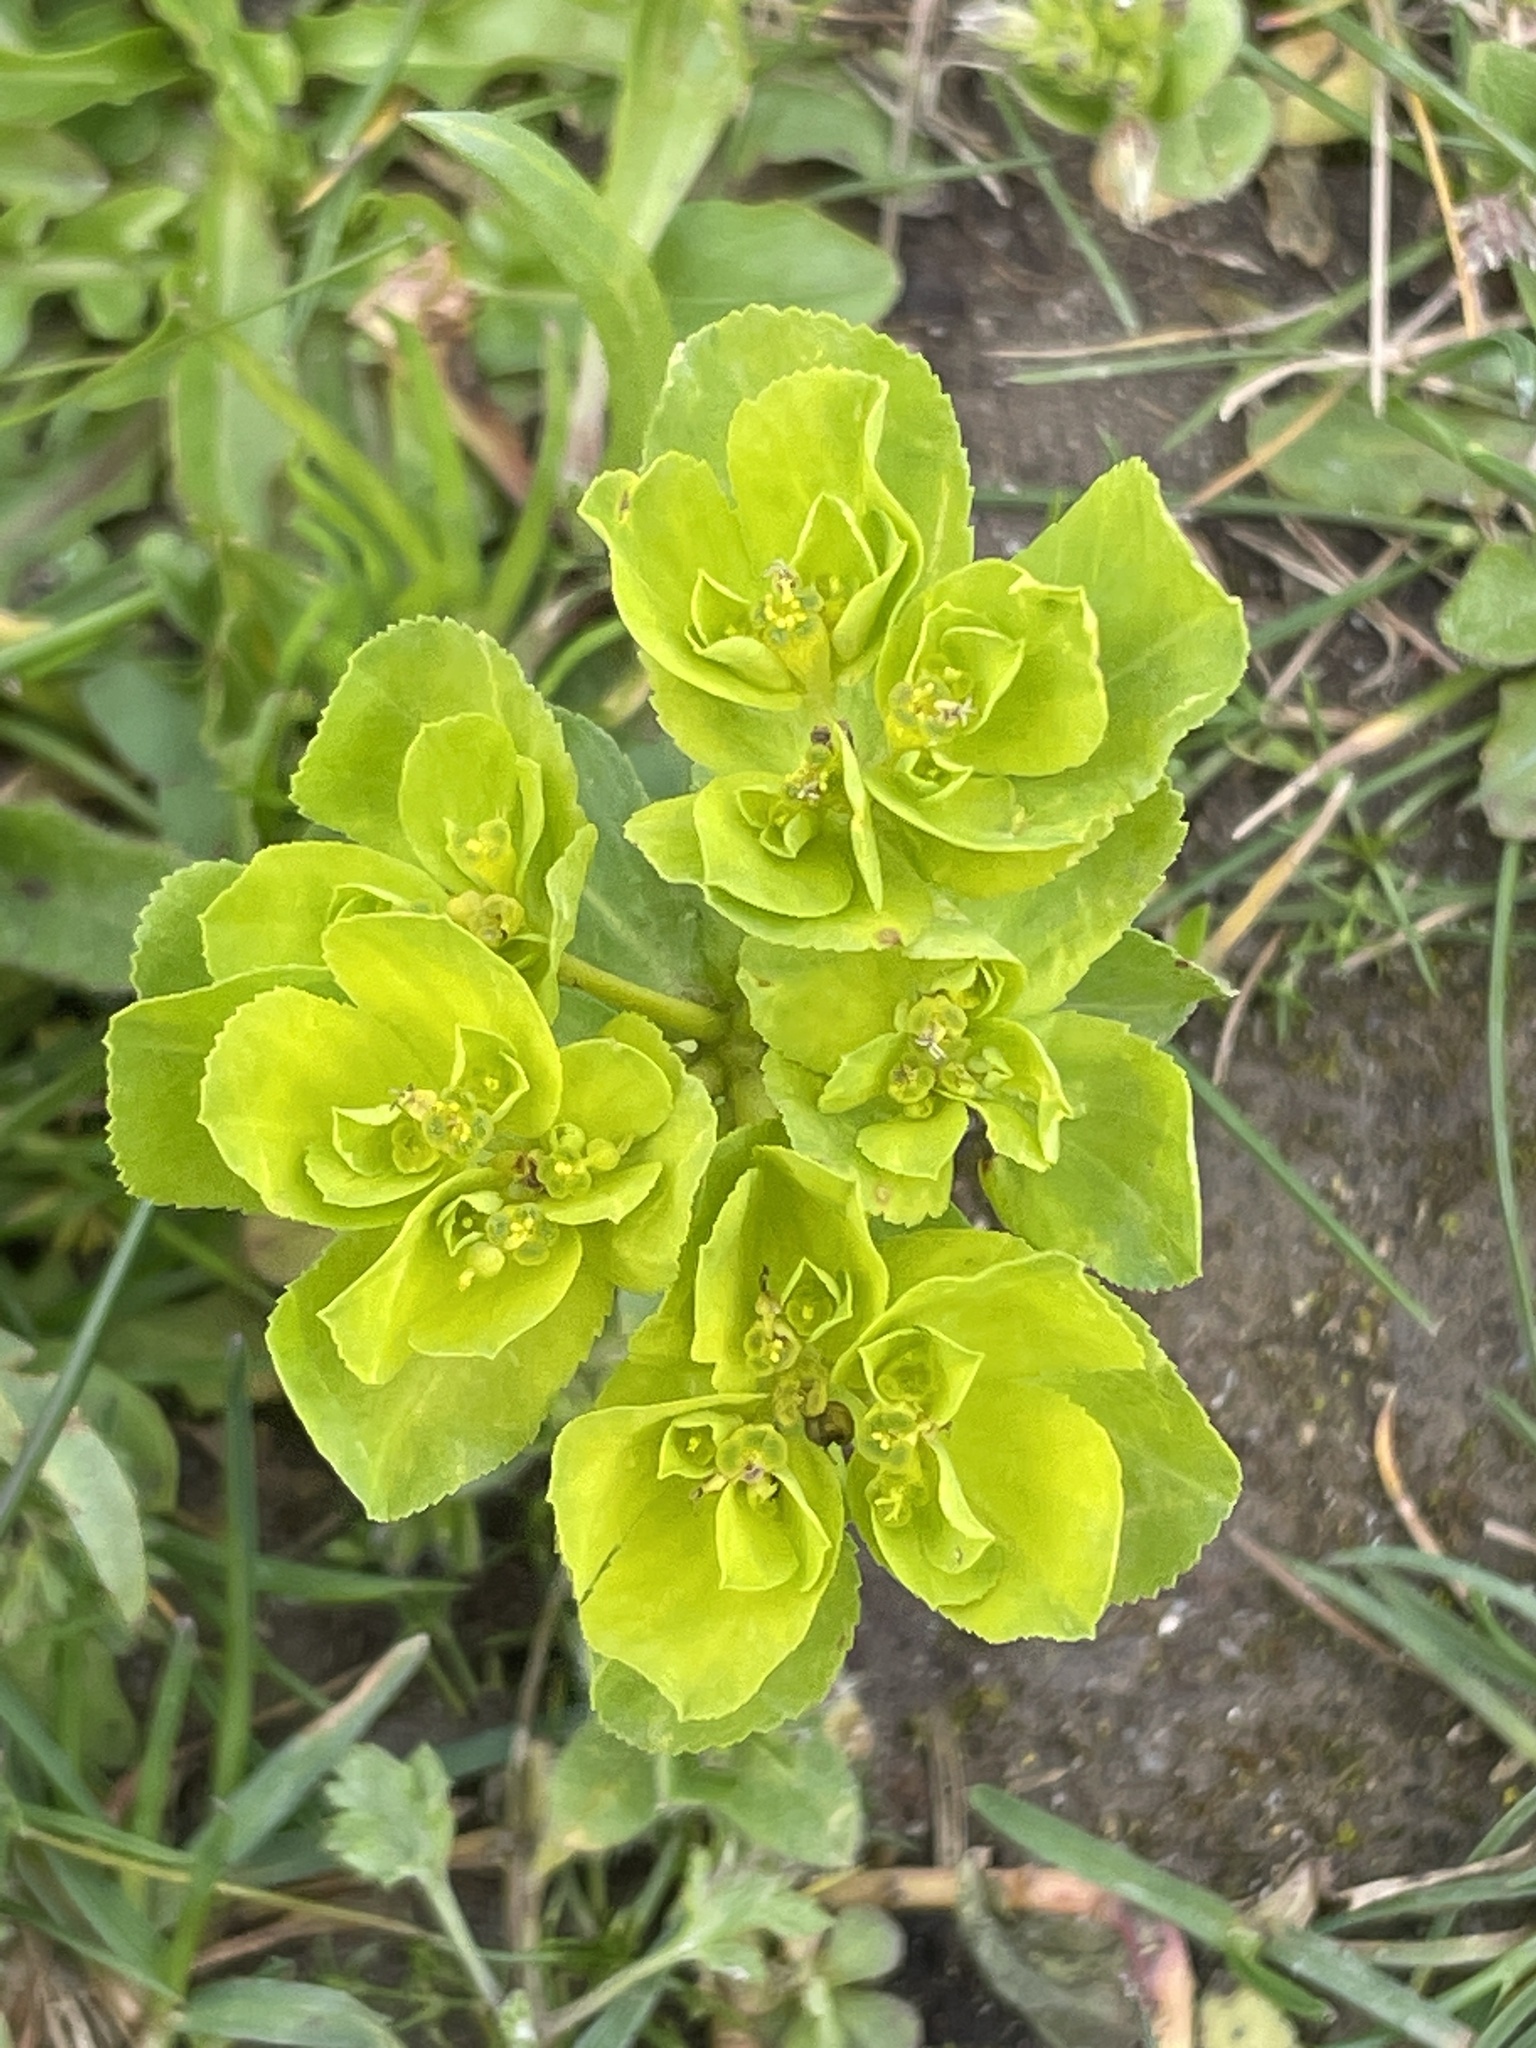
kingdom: Plantae
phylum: Tracheophyta
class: Magnoliopsida
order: Malpighiales
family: Euphorbiaceae
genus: Euphorbia
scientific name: Euphorbia helioscopia
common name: Sun spurge
